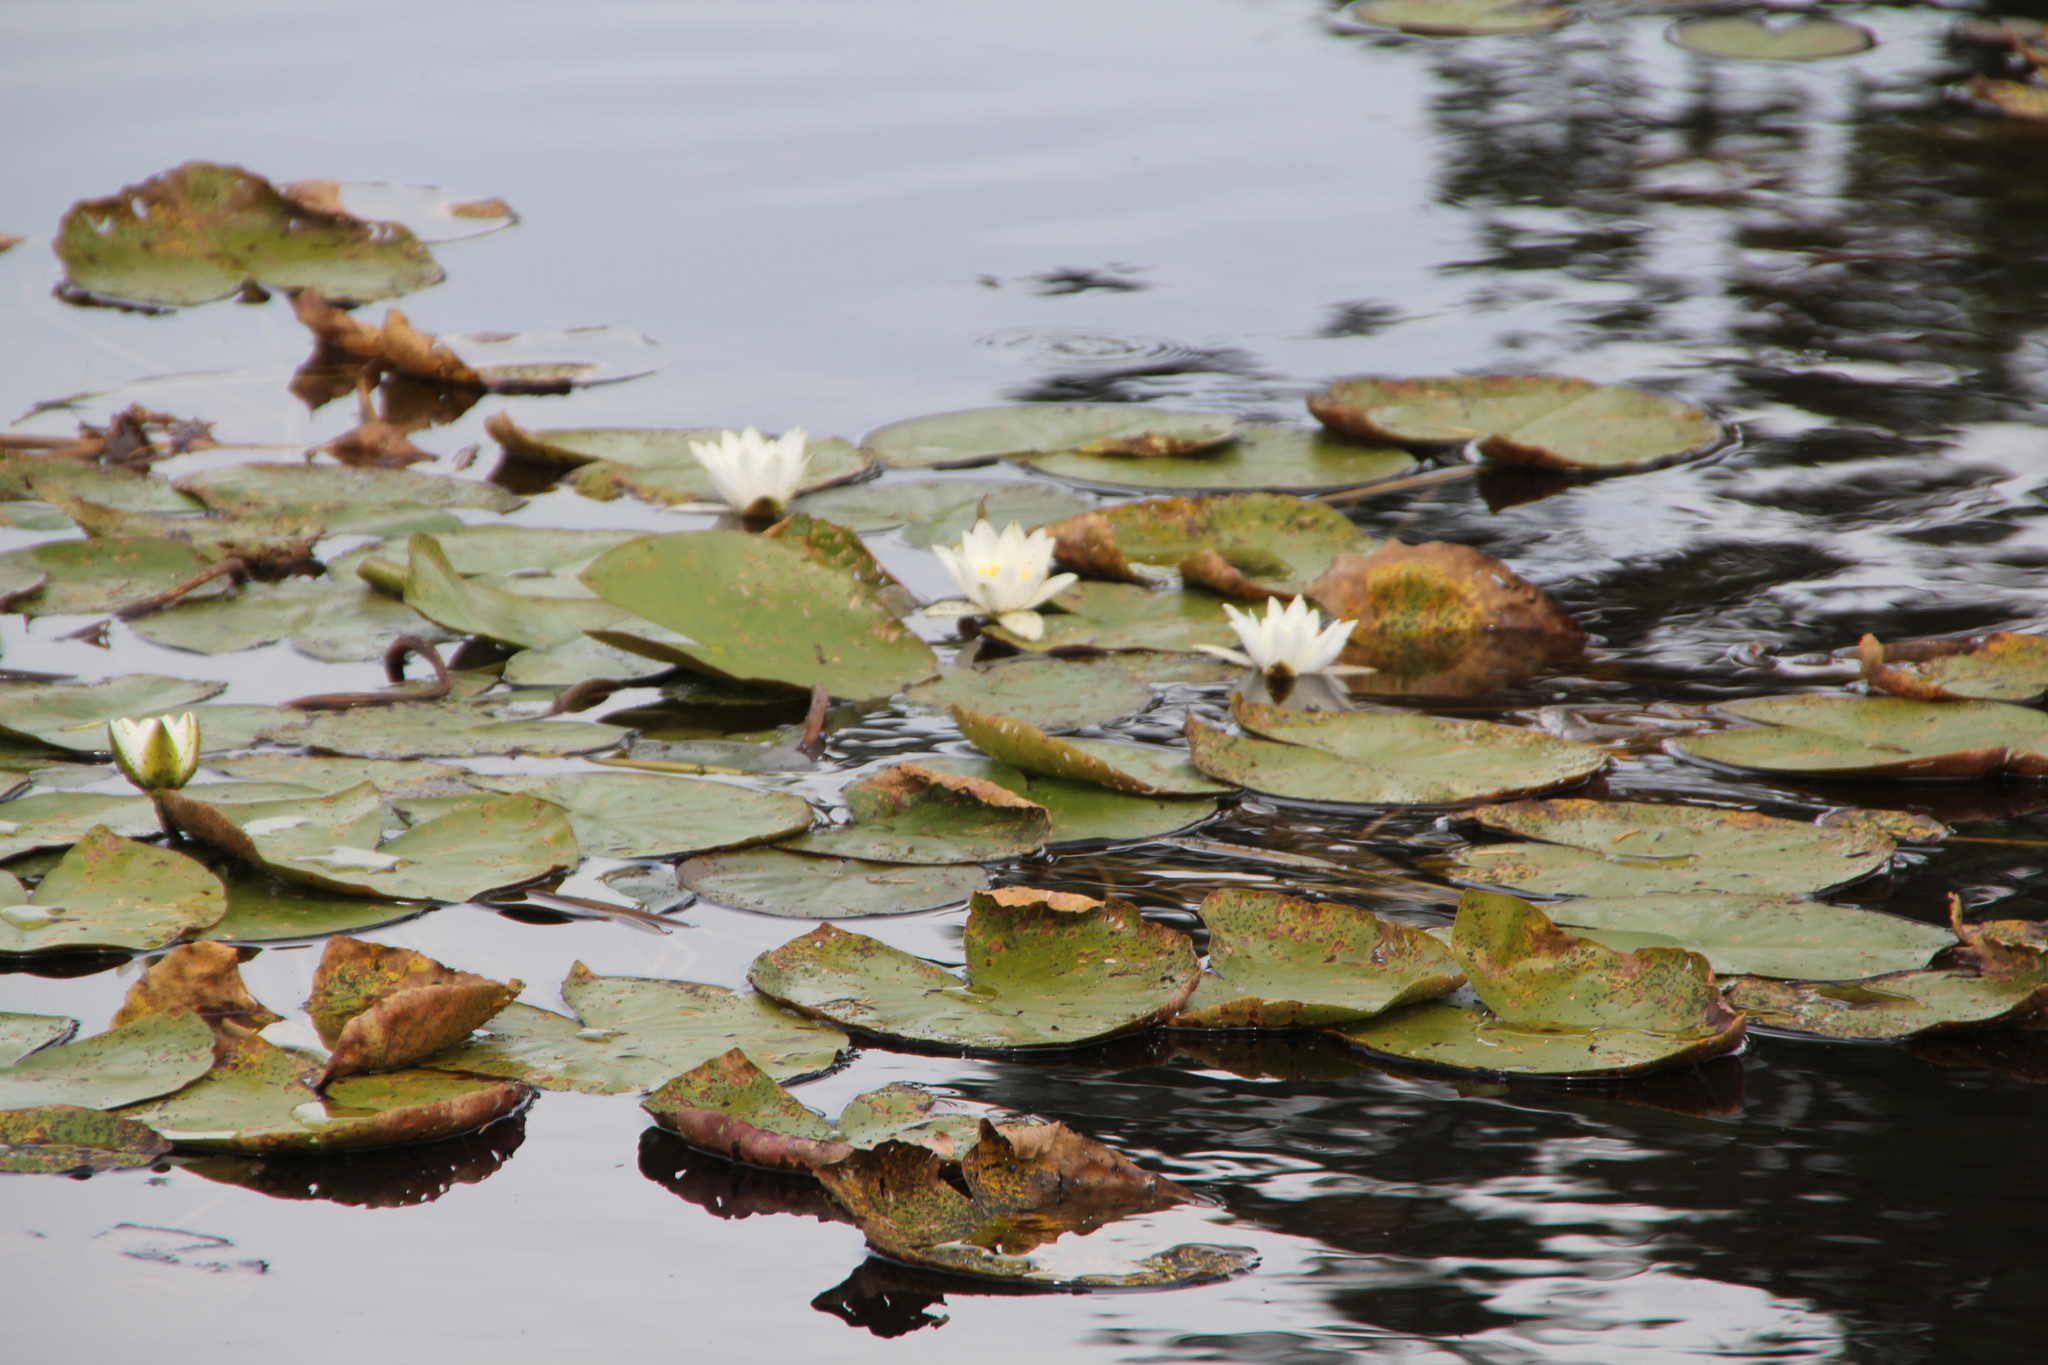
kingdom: Plantae
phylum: Tracheophyta
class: Magnoliopsida
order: Nymphaeales
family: Nymphaeaceae
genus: Nymphaea
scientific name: Nymphaea alba
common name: White water-lily
